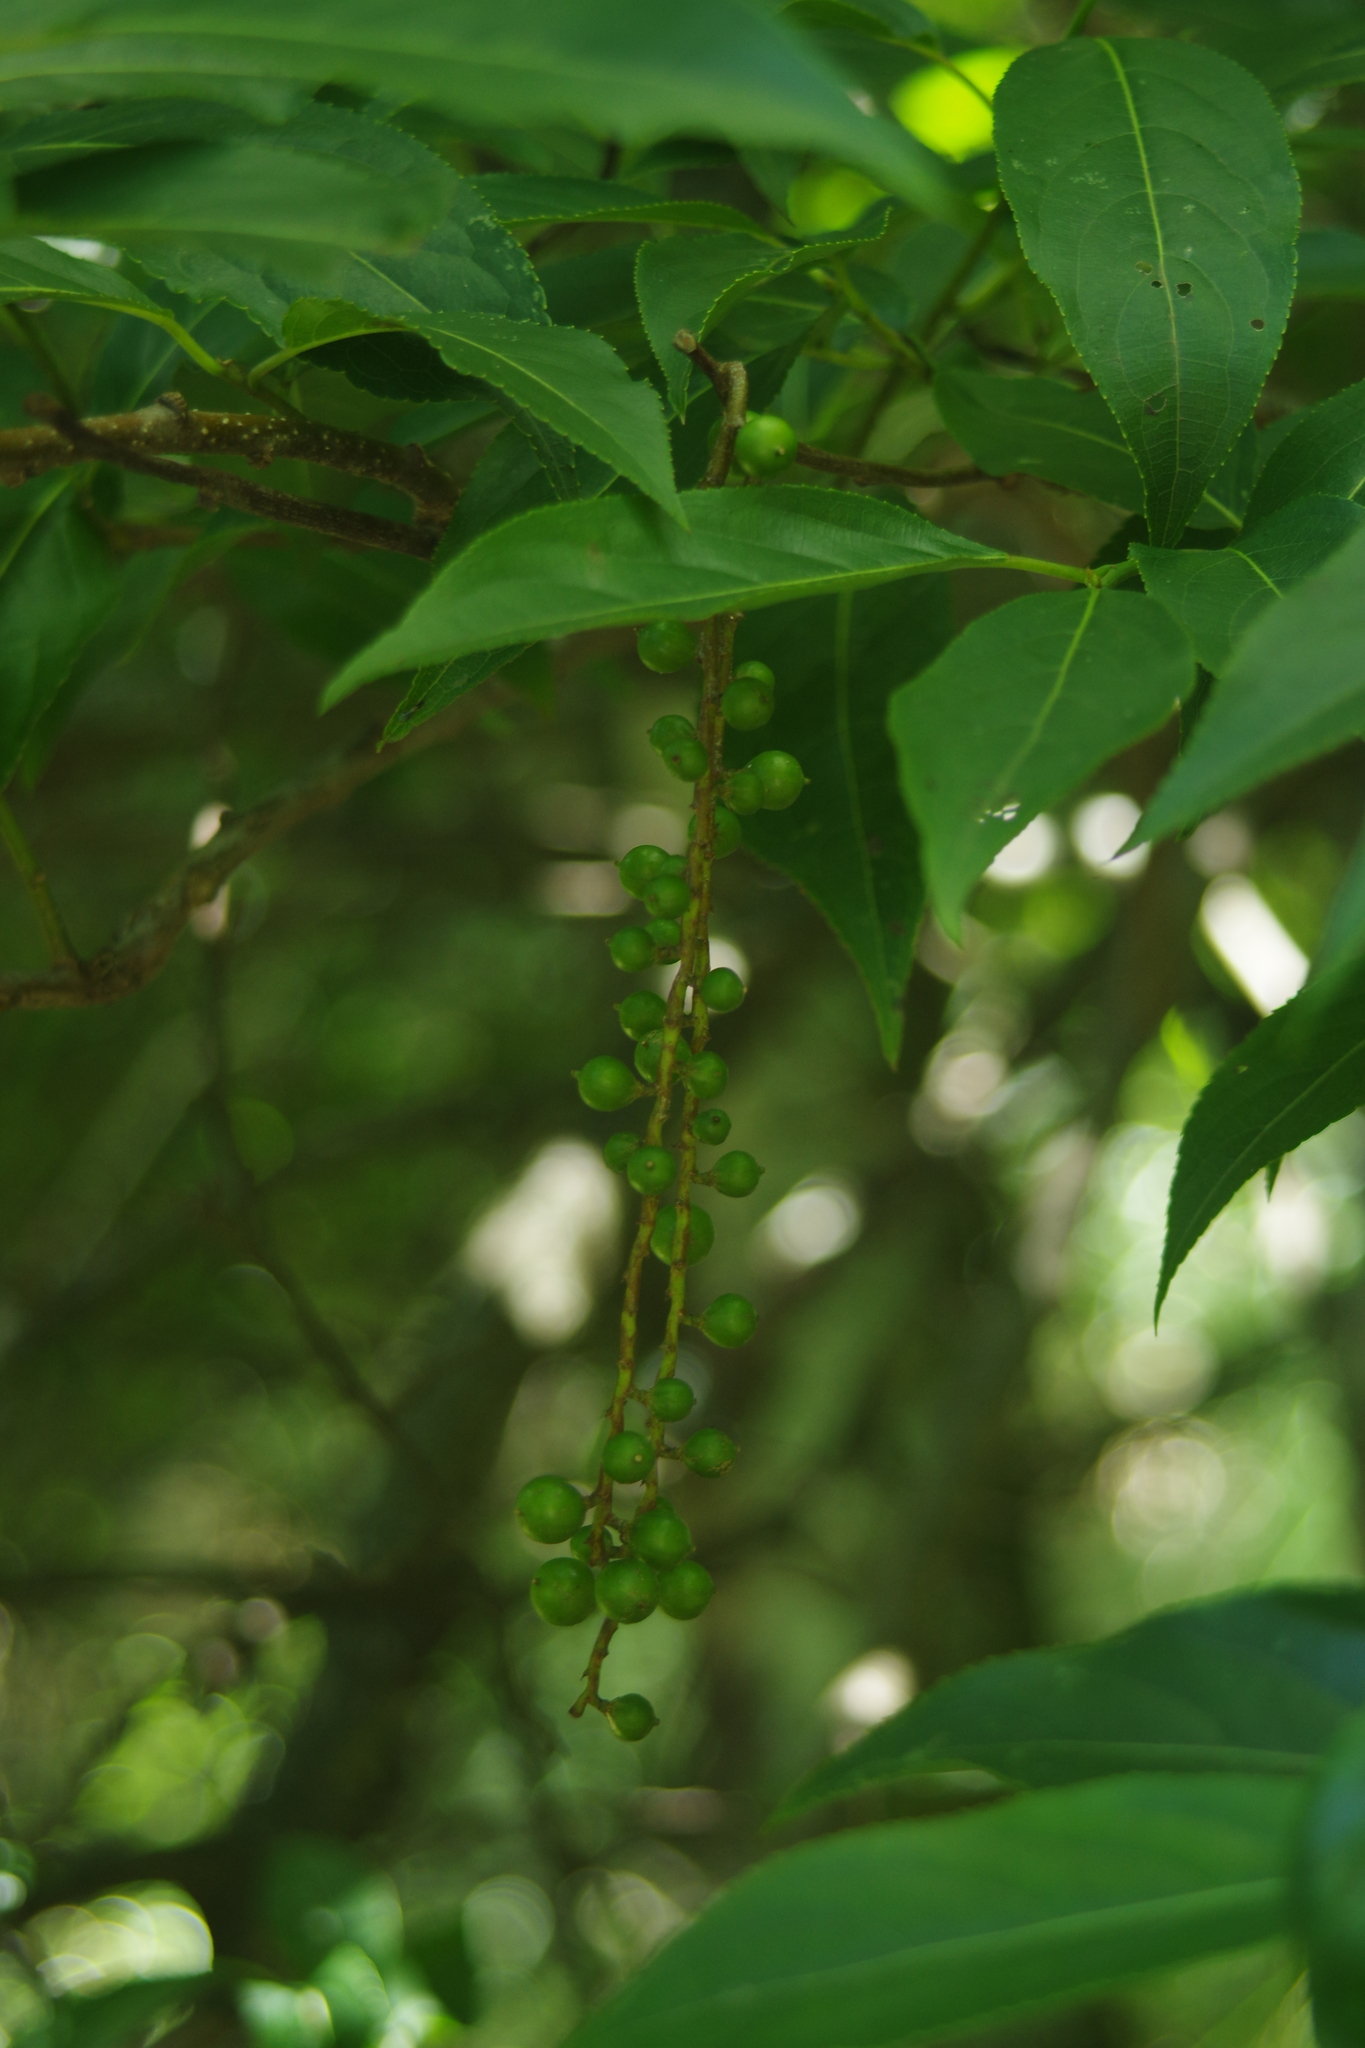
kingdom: Plantae
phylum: Tracheophyta
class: Magnoliopsida
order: Crossosomatales
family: Stachyuraceae
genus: Stachyurus
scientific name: Stachyurus himalaicus
